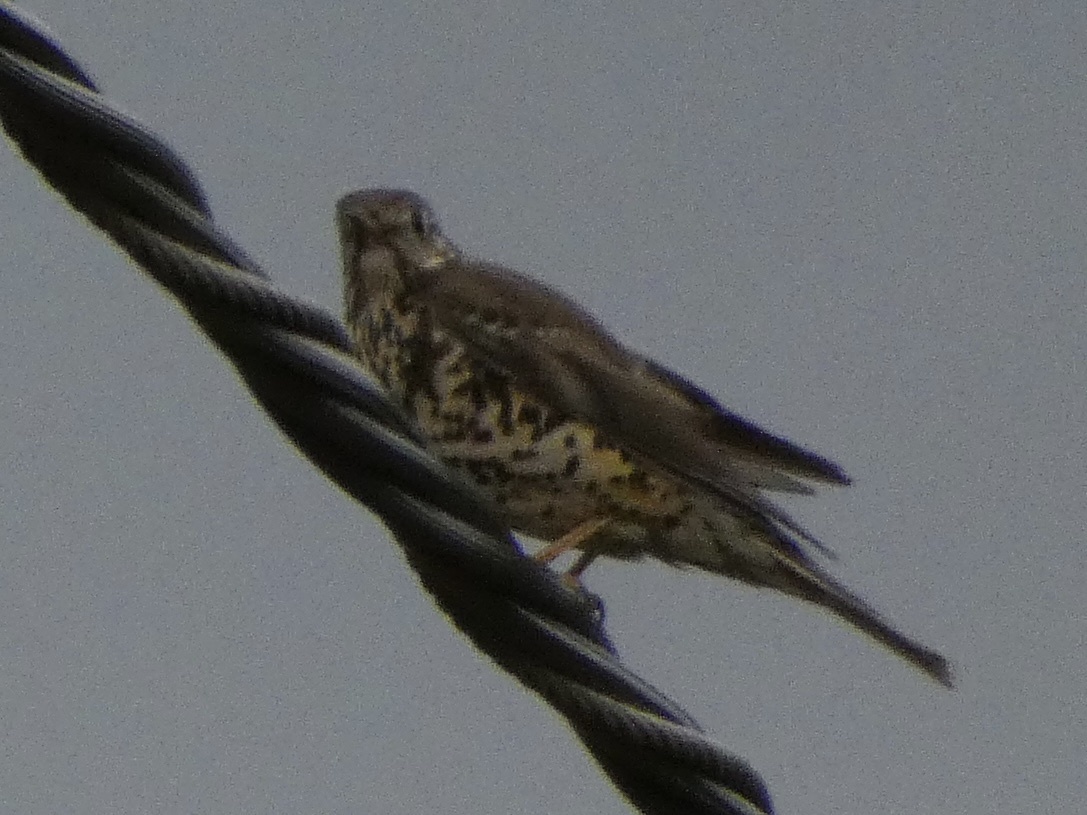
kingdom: Animalia
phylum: Chordata
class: Aves
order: Passeriformes
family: Turdidae
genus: Turdus
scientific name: Turdus viscivorus
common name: Mistle thrush
